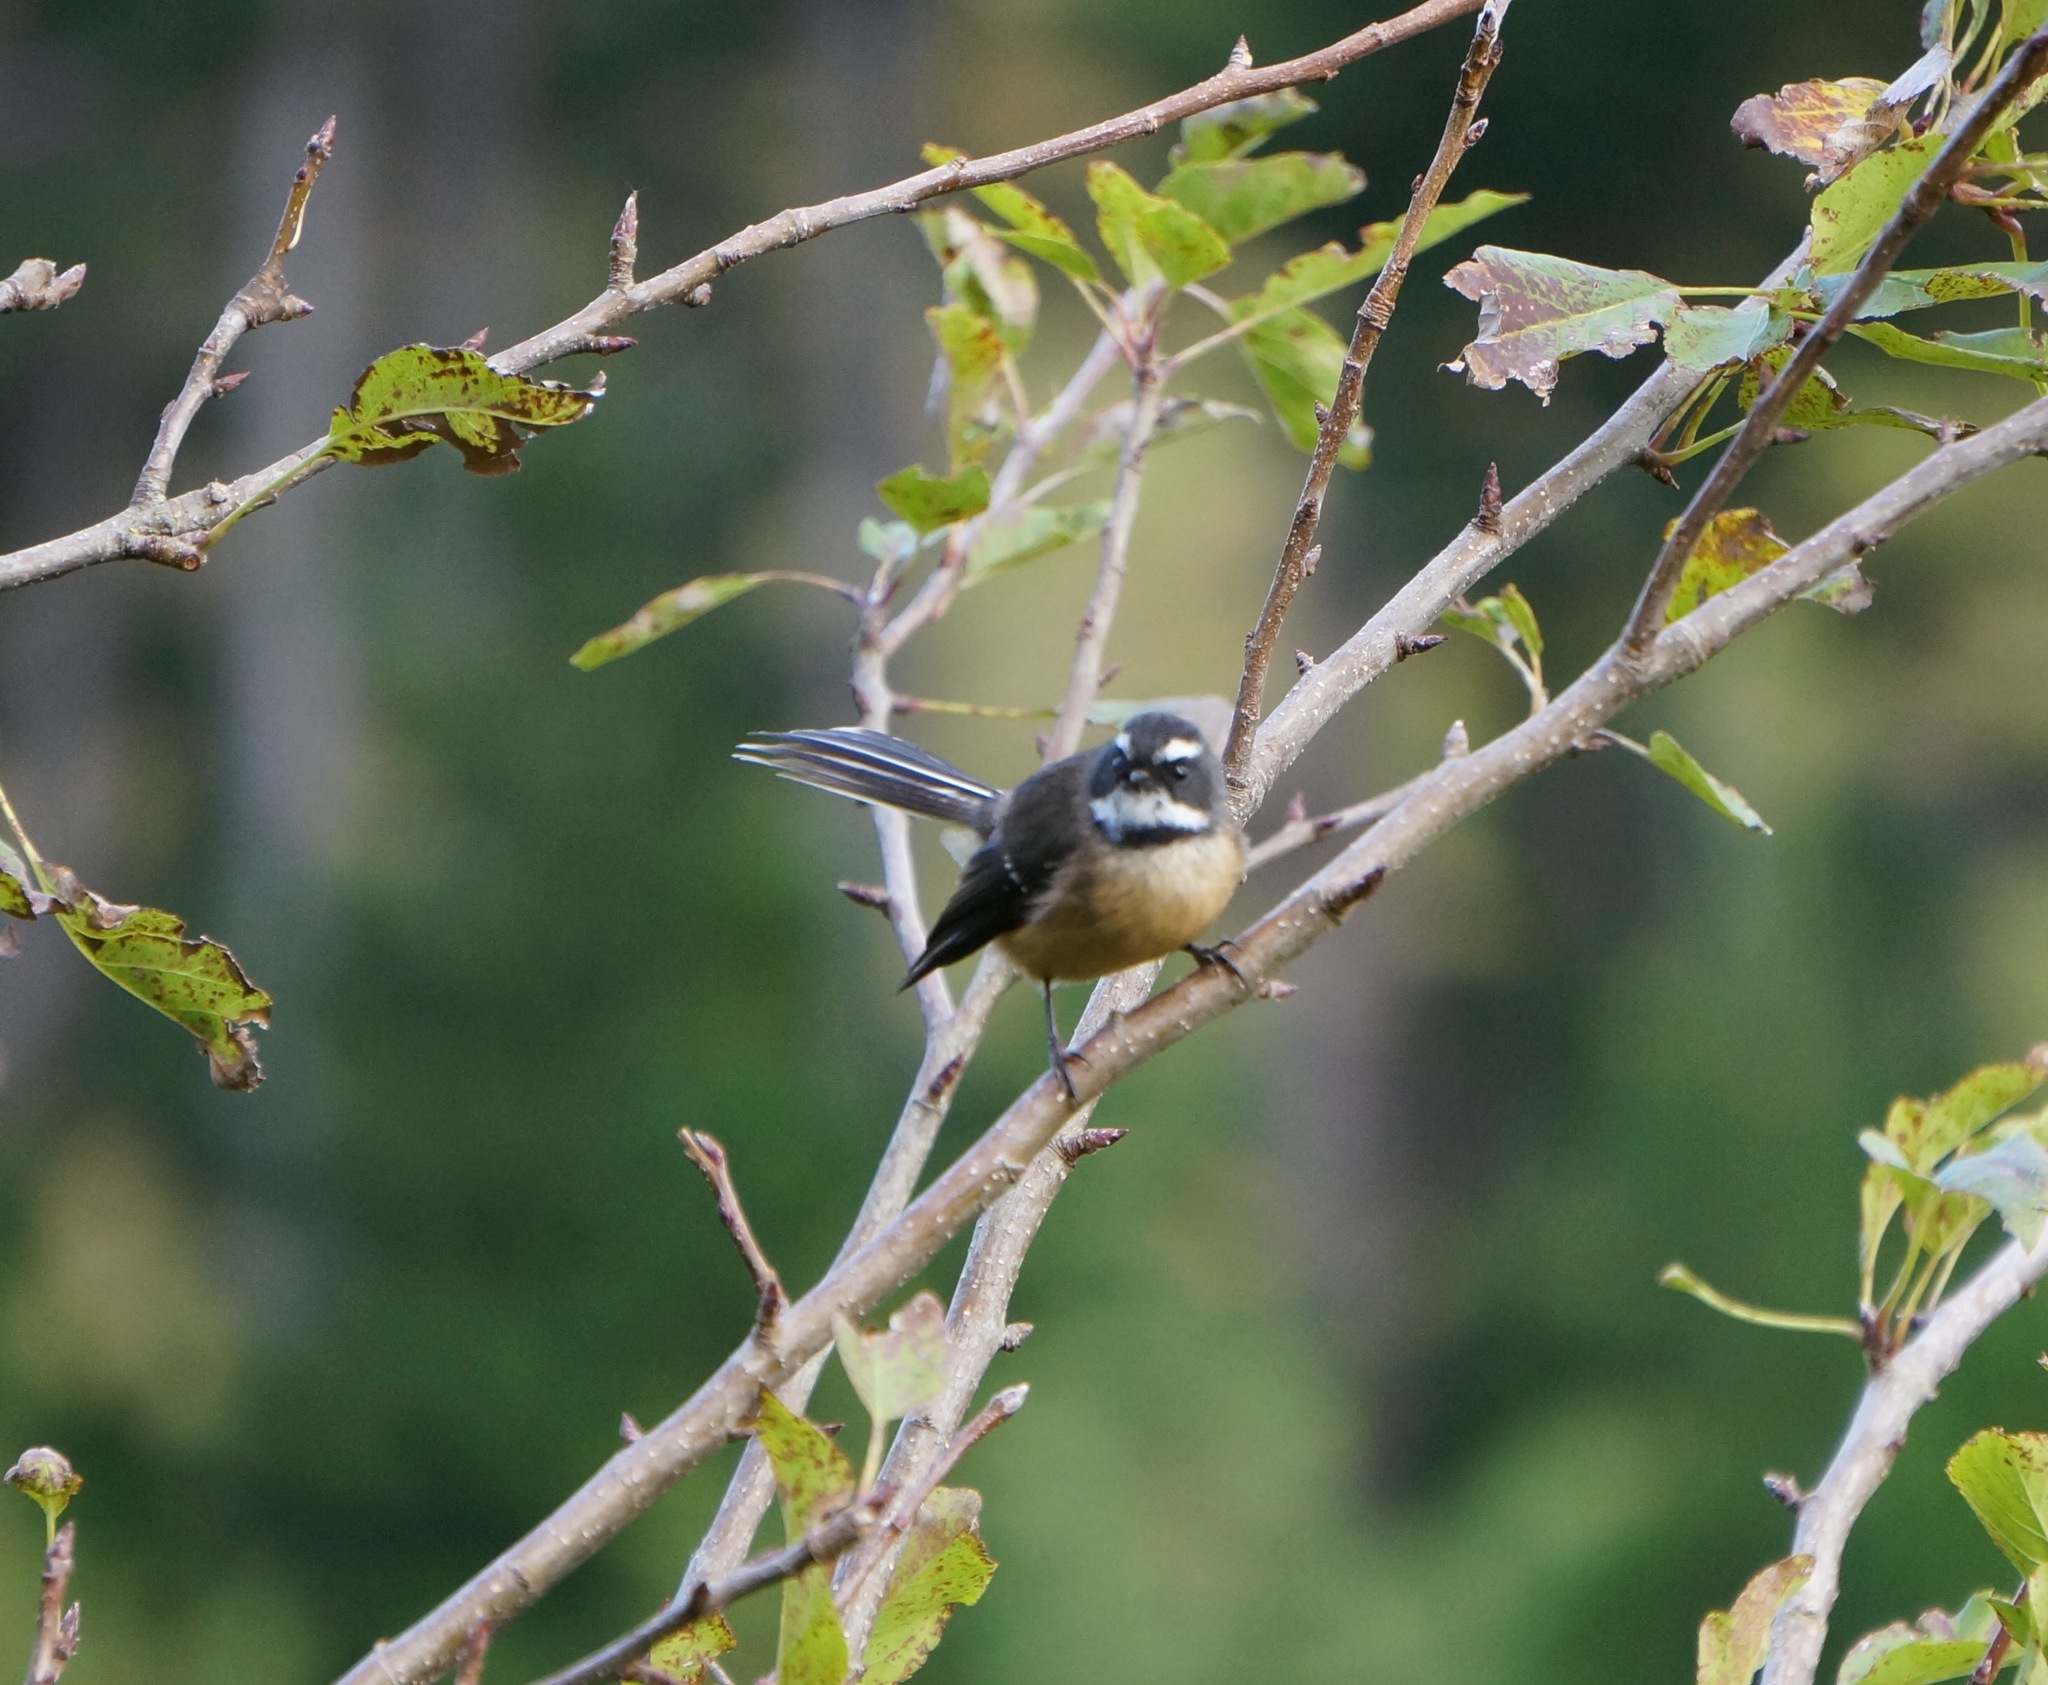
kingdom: Animalia
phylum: Chordata
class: Aves
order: Passeriformes
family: Rhipiduridae
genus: Rhipidura
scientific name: Rhipidura fuliginosa
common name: New zealand fantail
